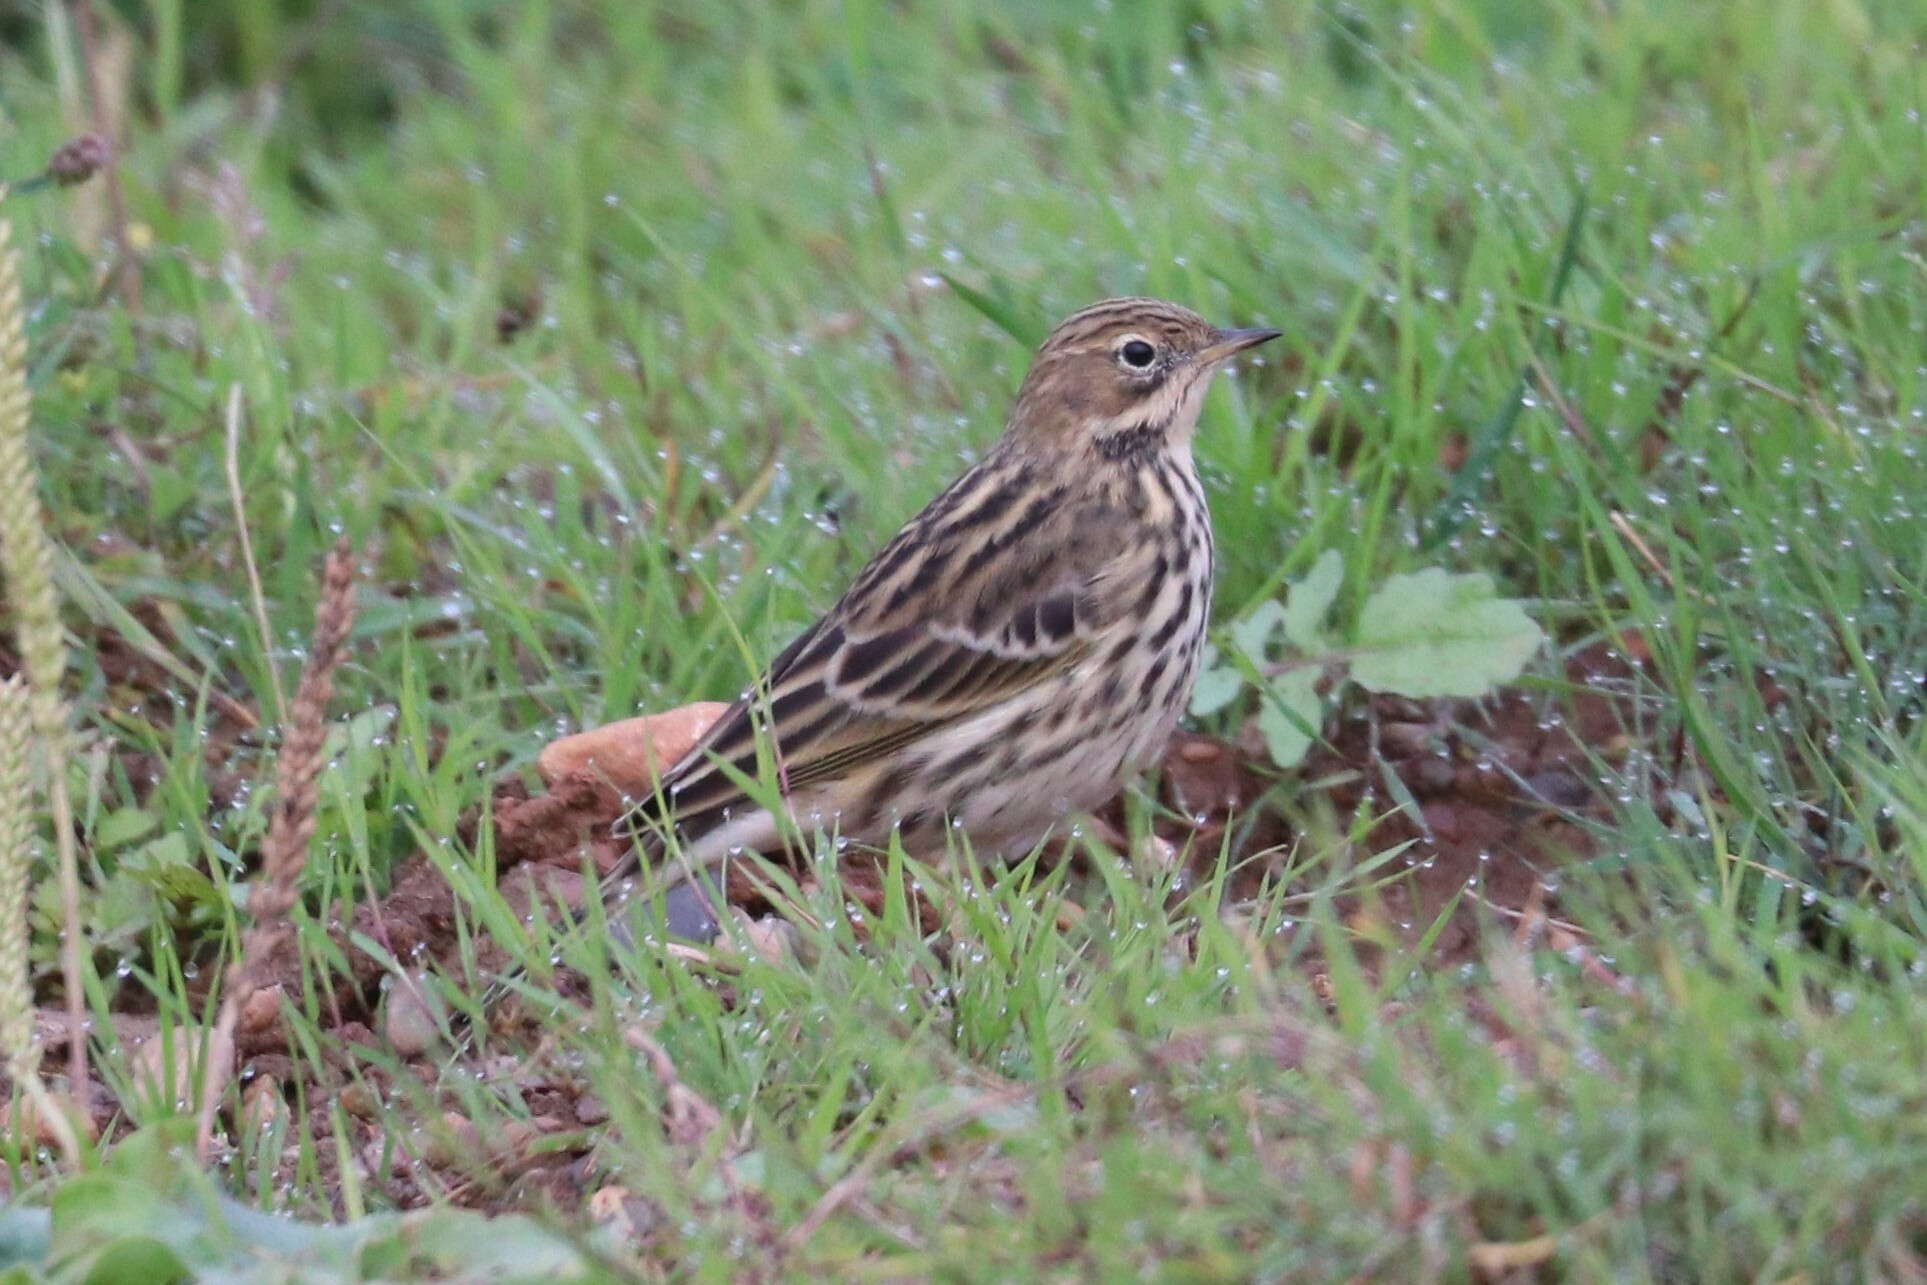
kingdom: Animalia
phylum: Chordata
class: Aves
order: Passeriformes
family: Motacillidae
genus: Anthus
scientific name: Anthus cervinus
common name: Red-throated pipit
